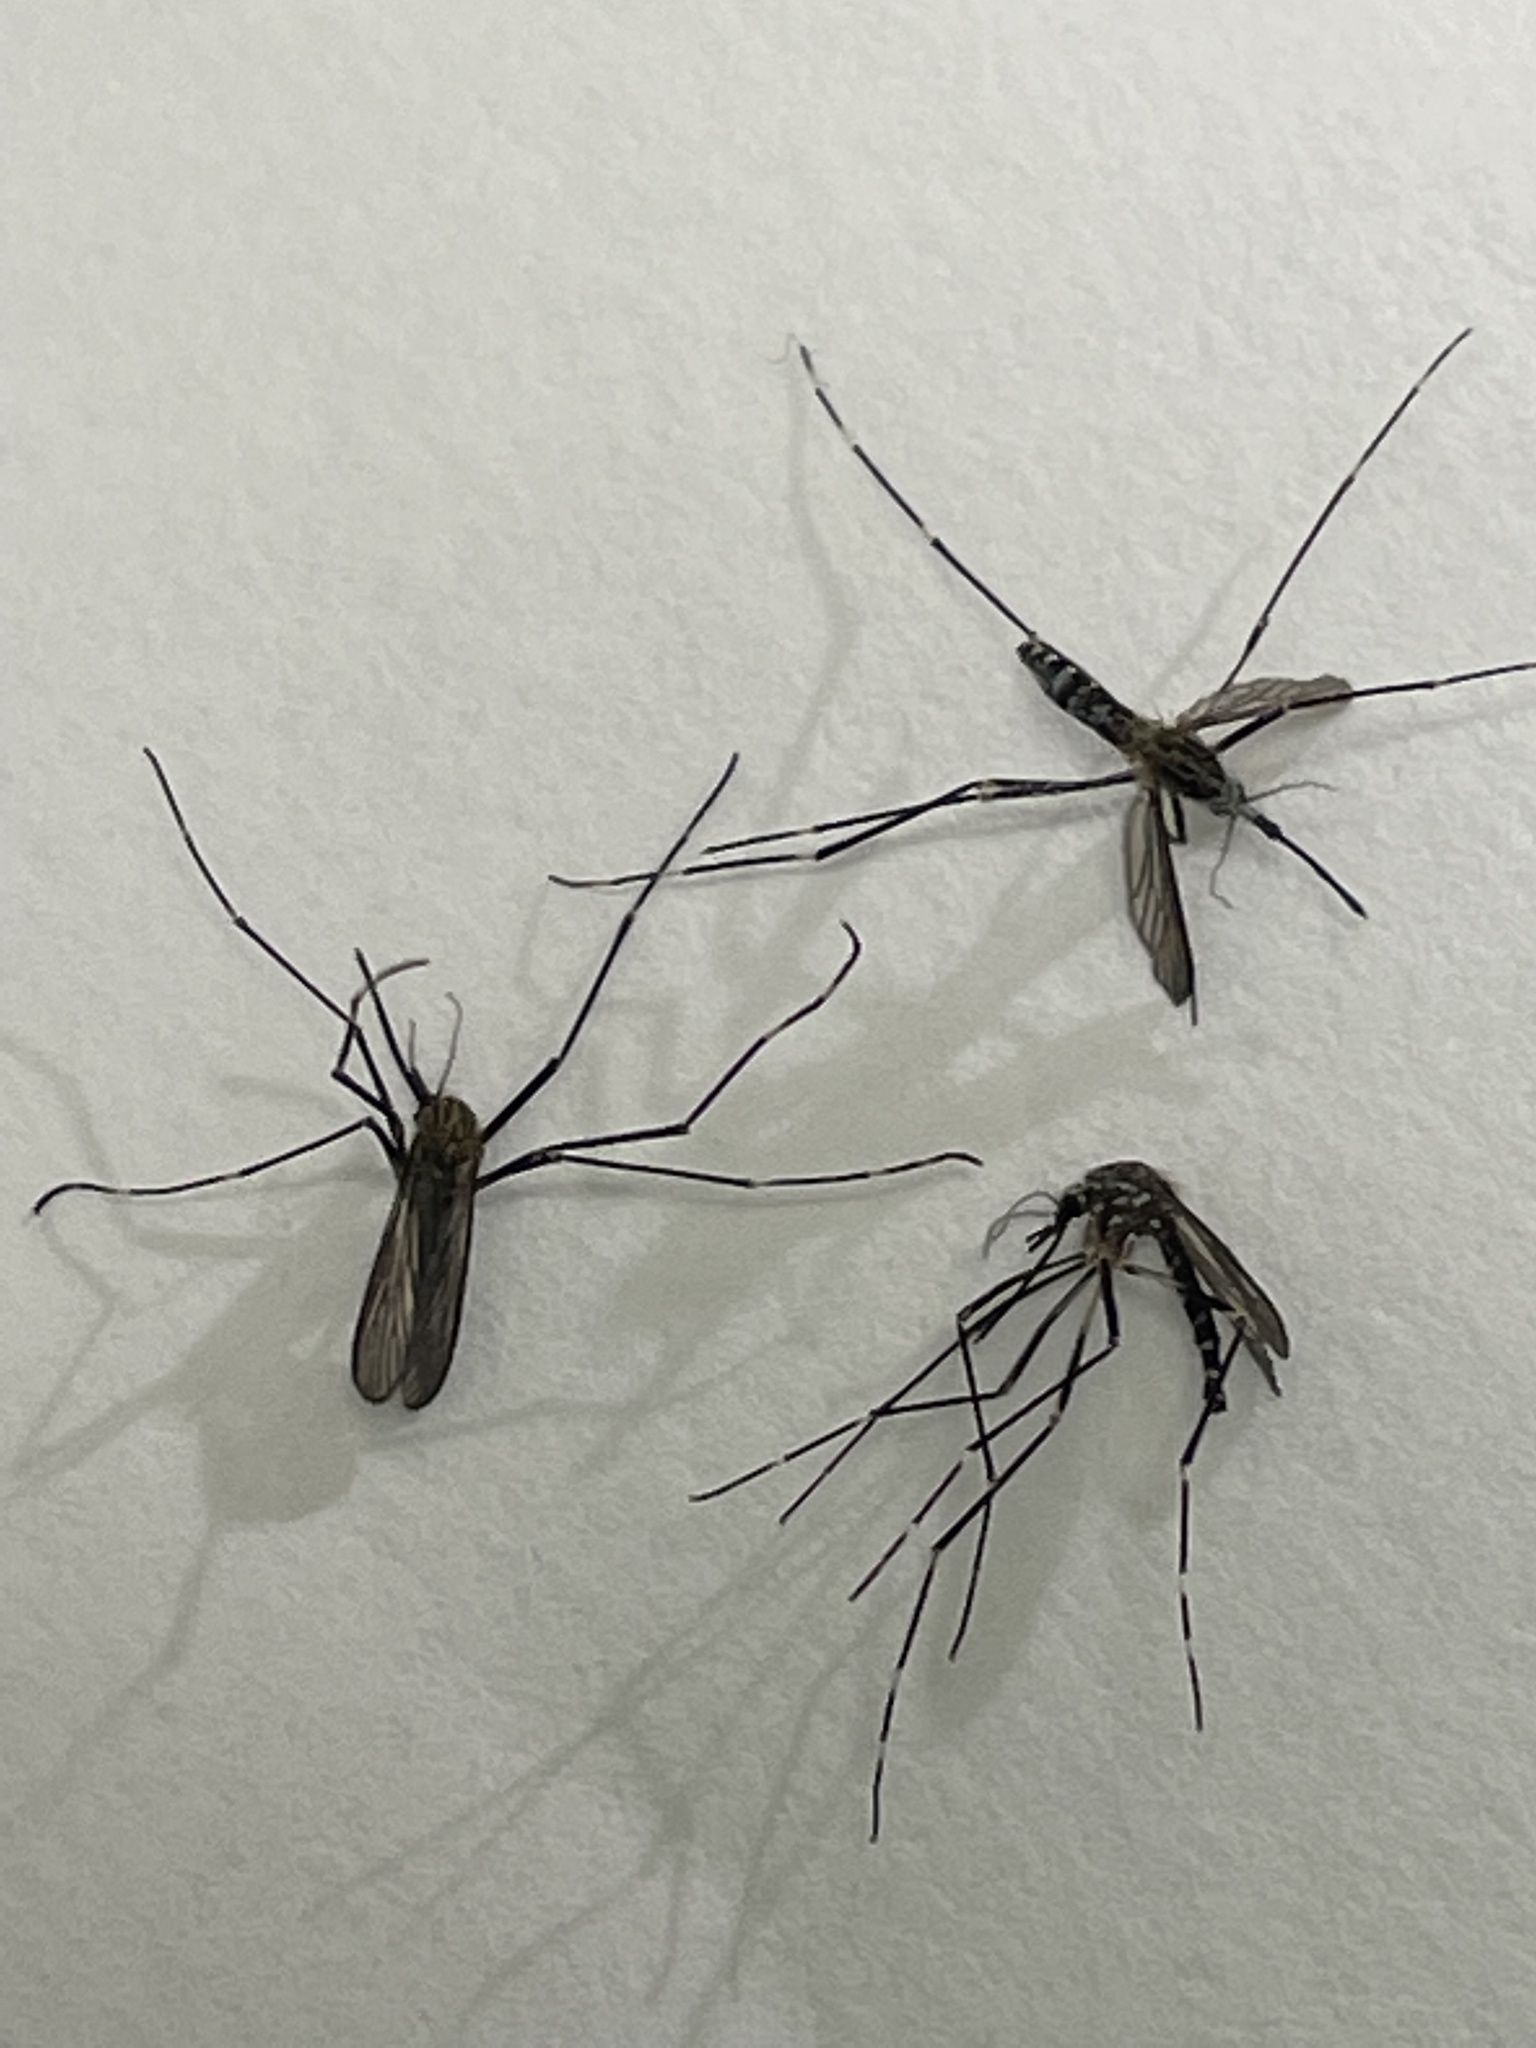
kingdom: Animalia
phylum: Arthropoda
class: Insecta
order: Diptera
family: Culicidae
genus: Aedes
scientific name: Aedes japonicus
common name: Asian bush mosquito
